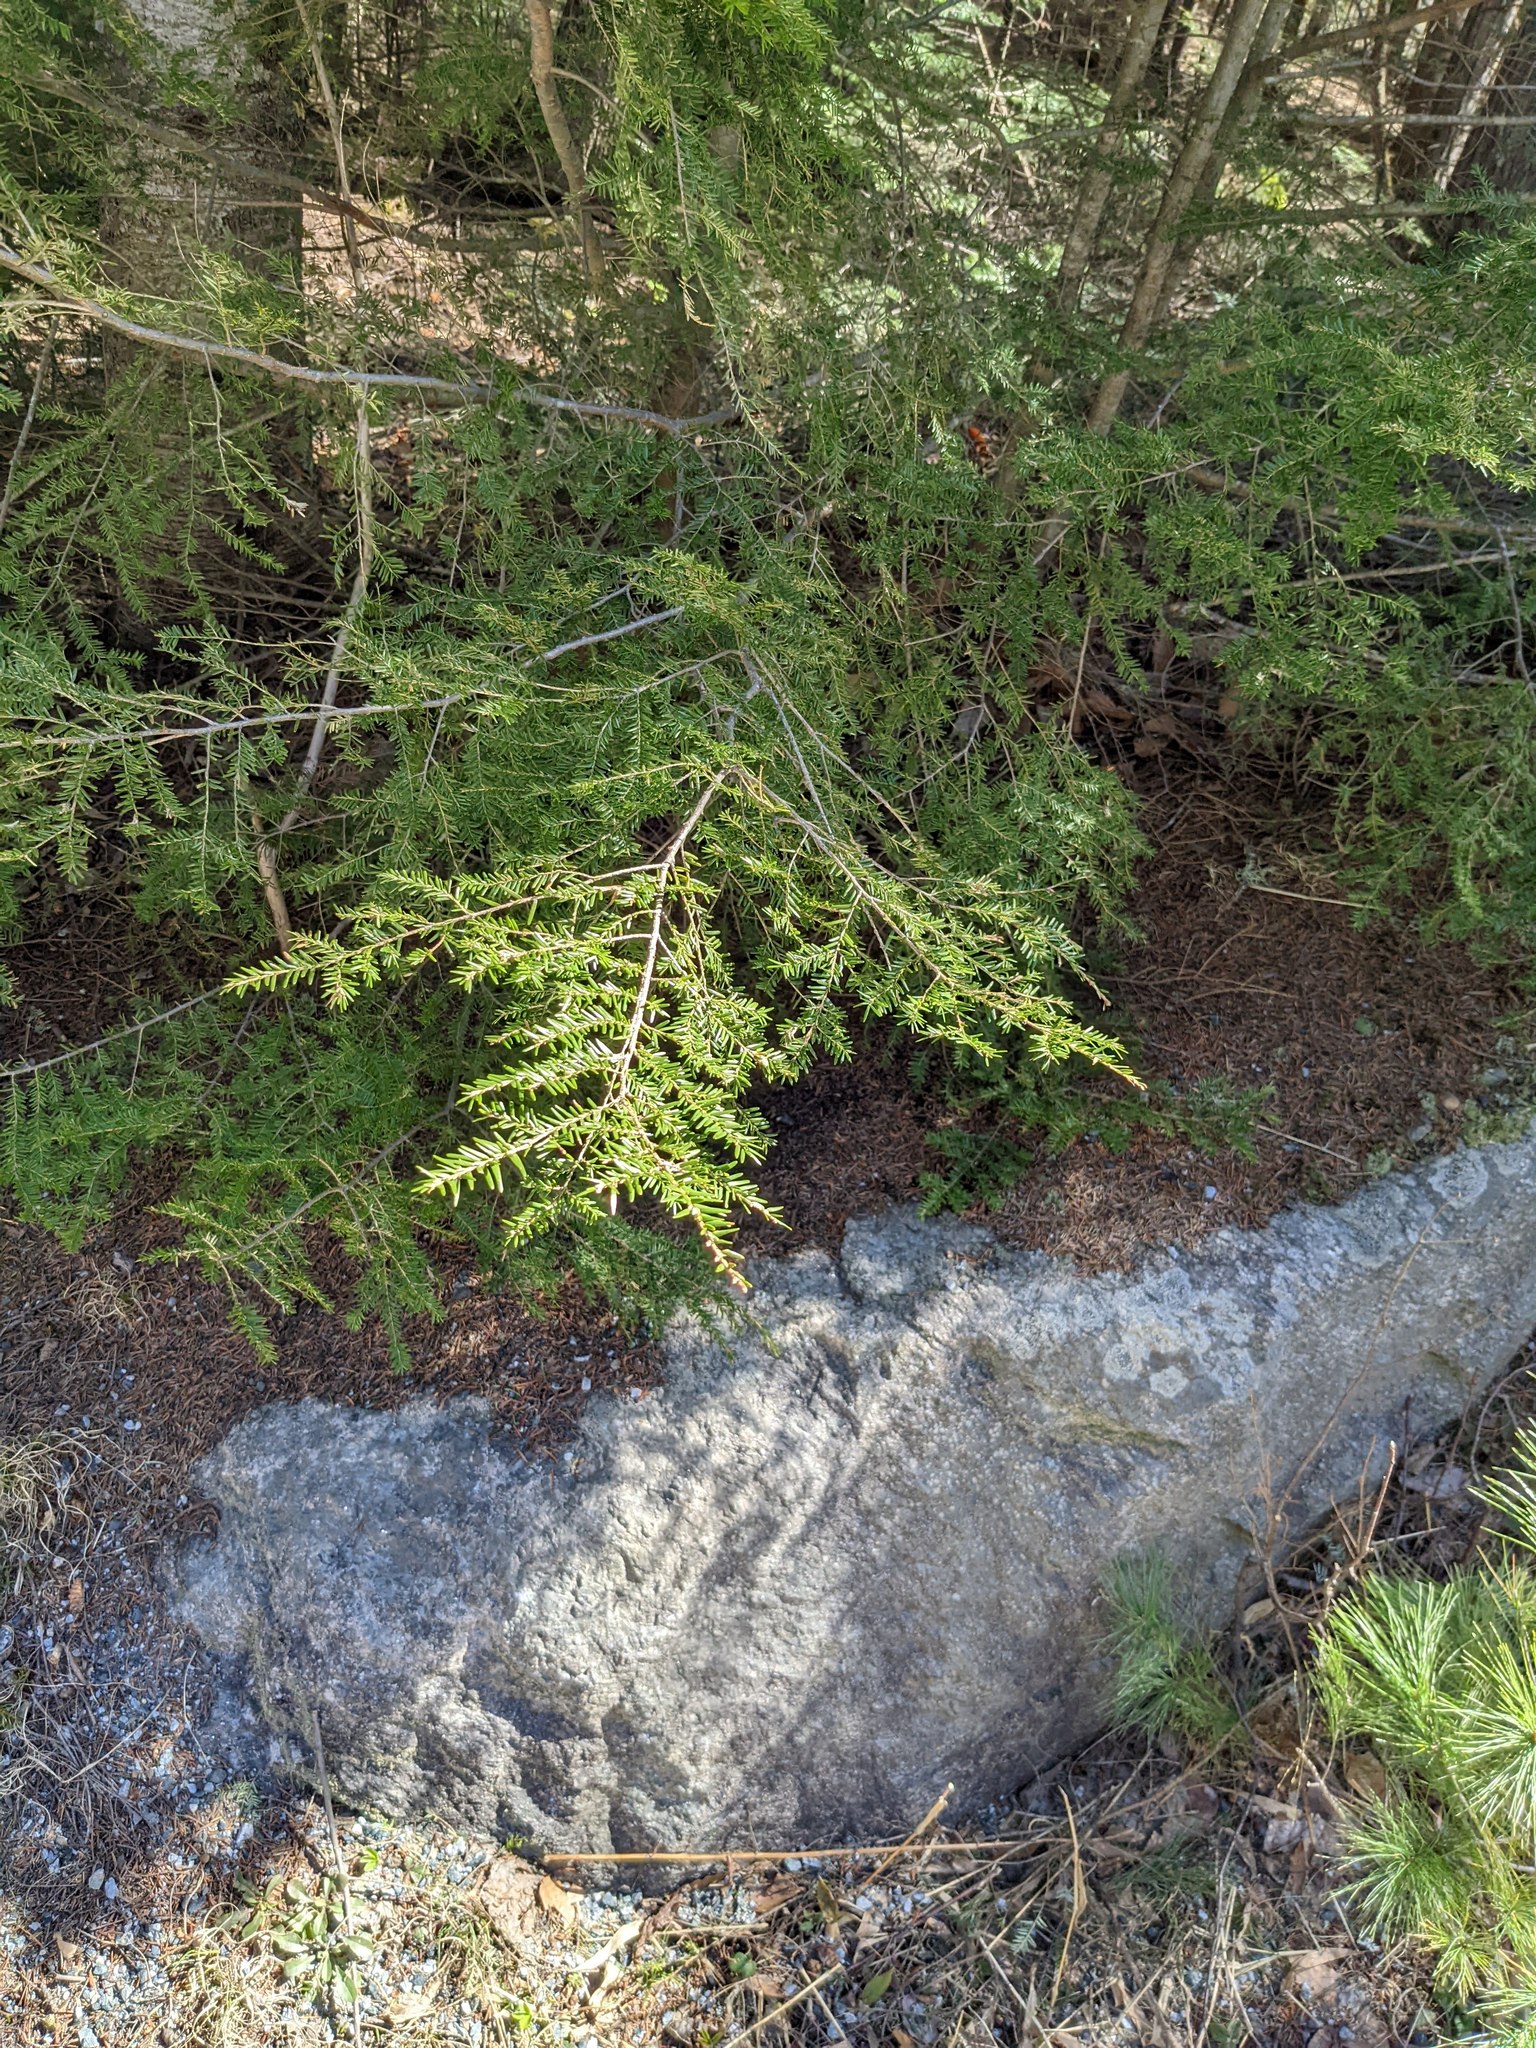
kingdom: Plantae
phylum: Tracheophyta
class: Pinopsida
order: Pinales
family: Pinaceae
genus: Tsuga
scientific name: Tsuga canadensis
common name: Eastern hemlock
